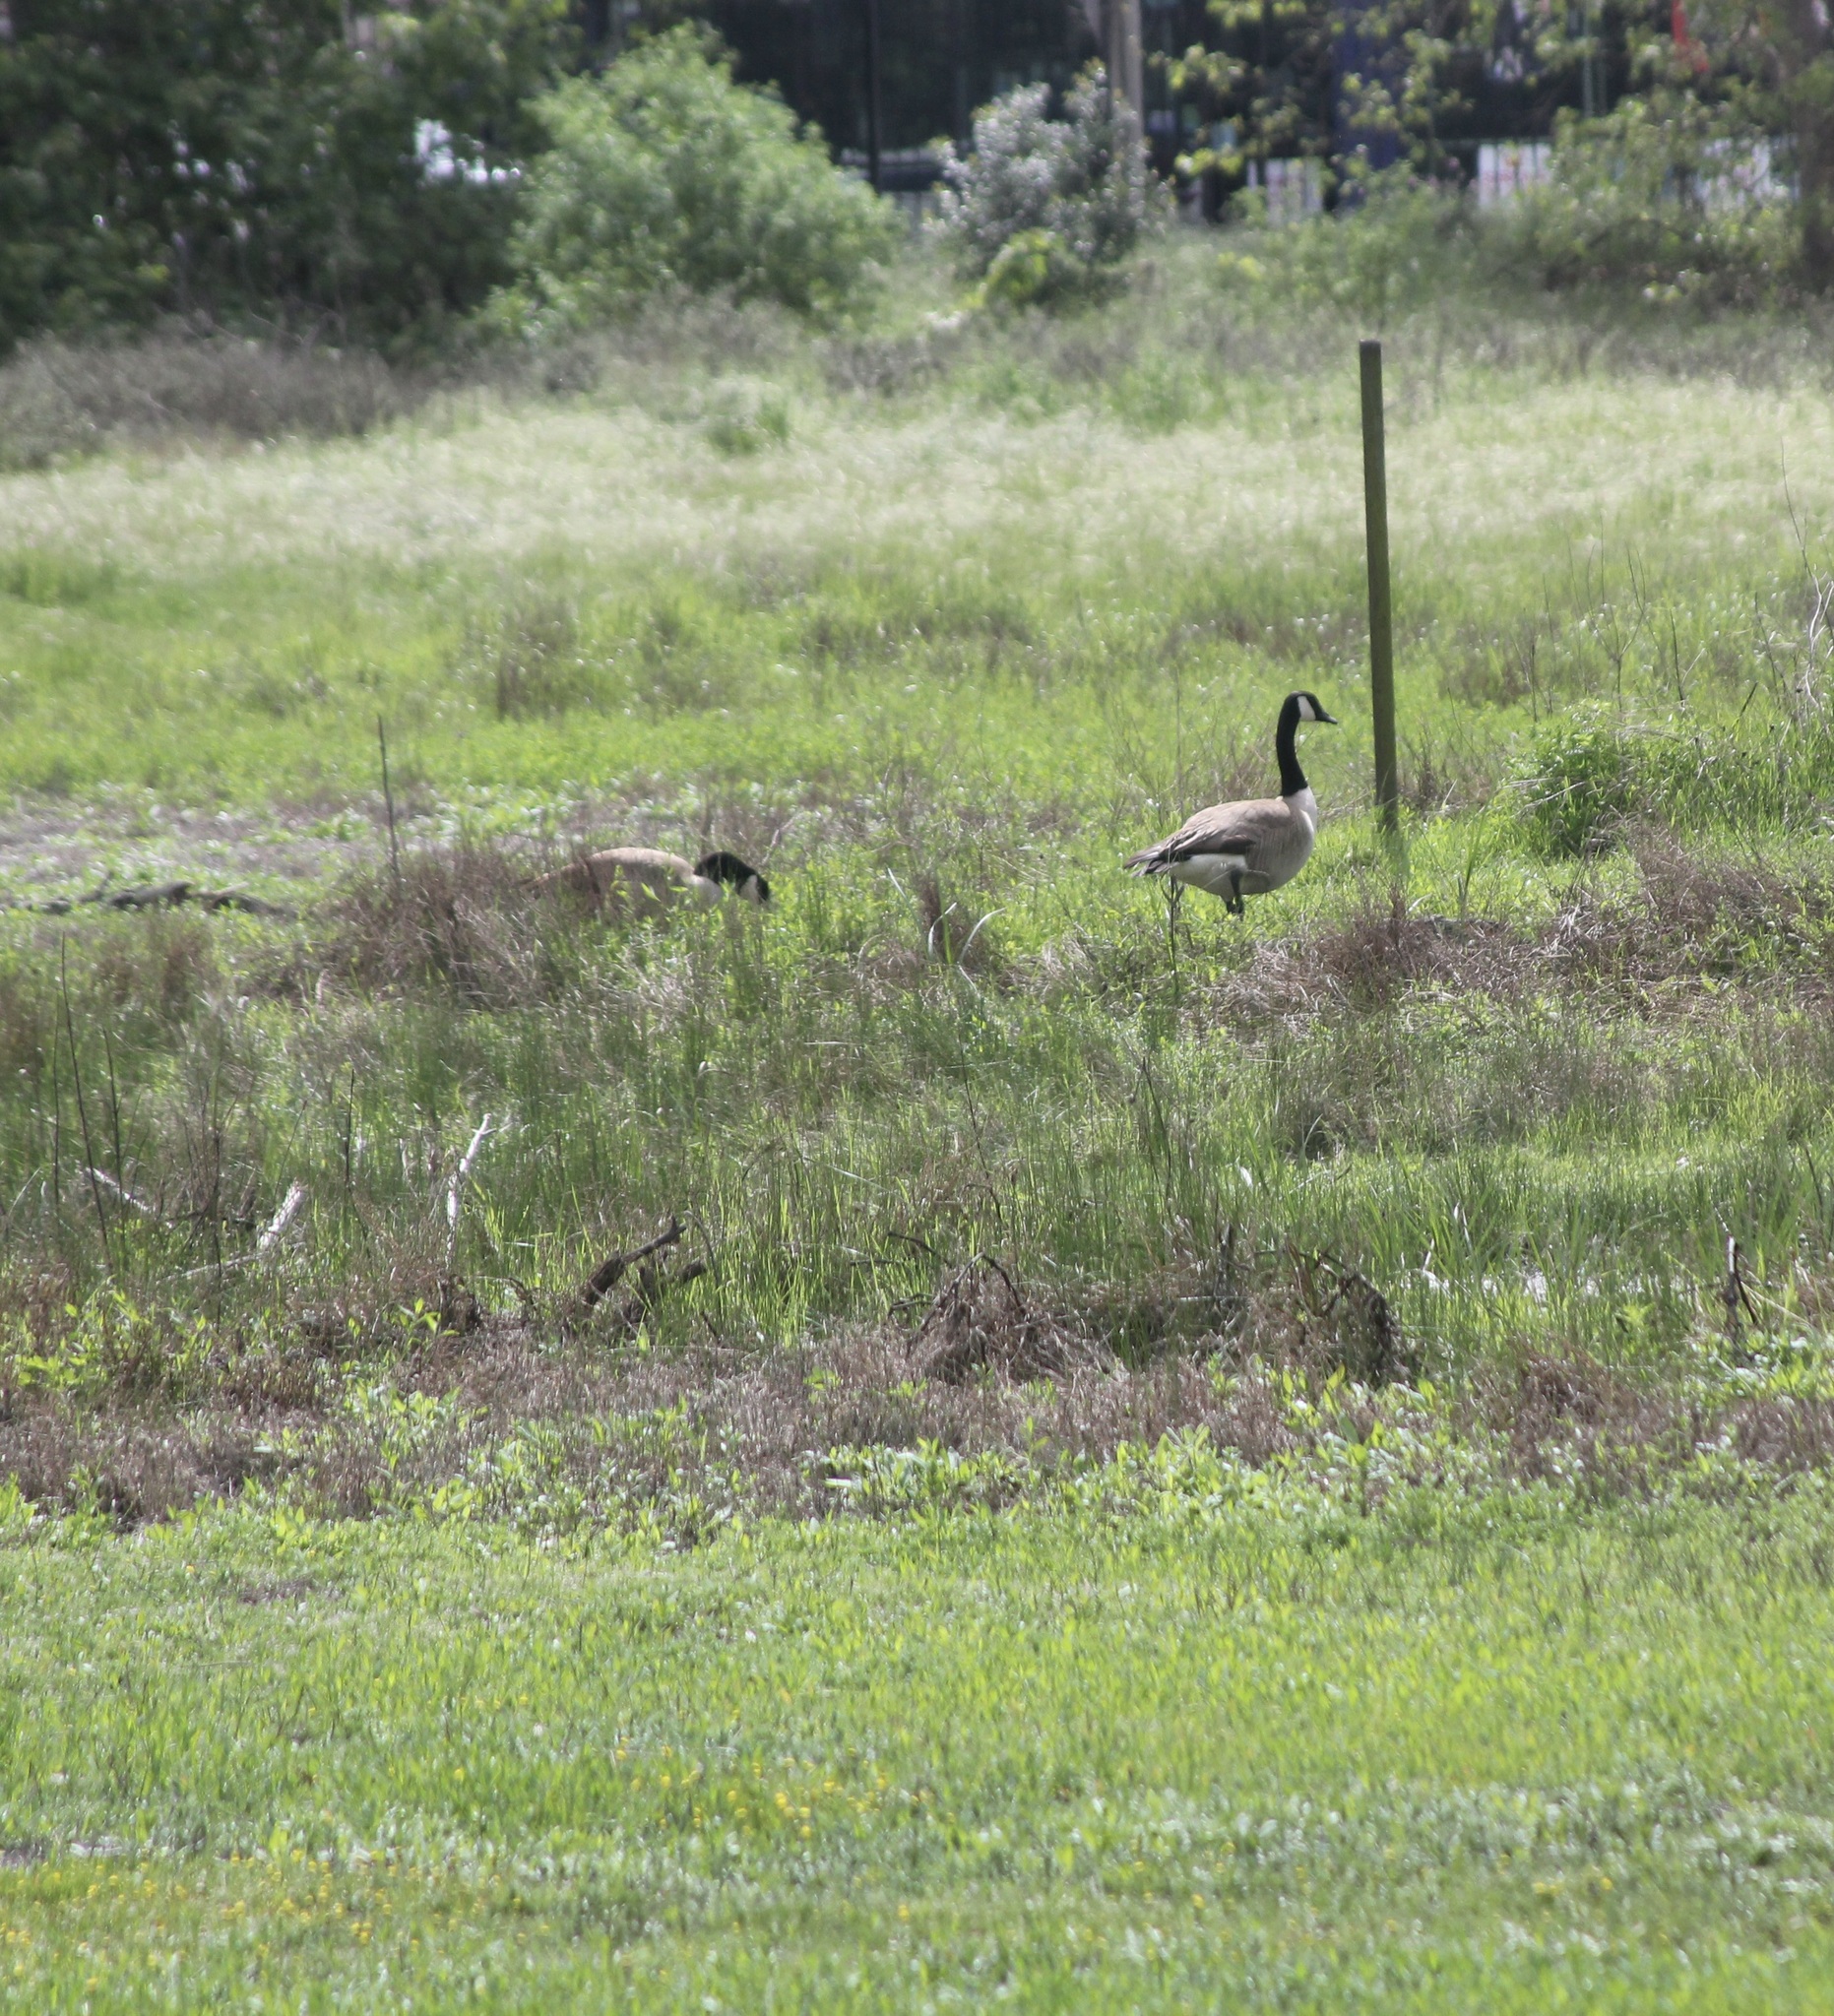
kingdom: Animalia
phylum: Chordata
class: Aves
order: Anseriformes
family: Anatidae
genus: Branta
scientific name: Branta canadensis
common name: Canada goose
